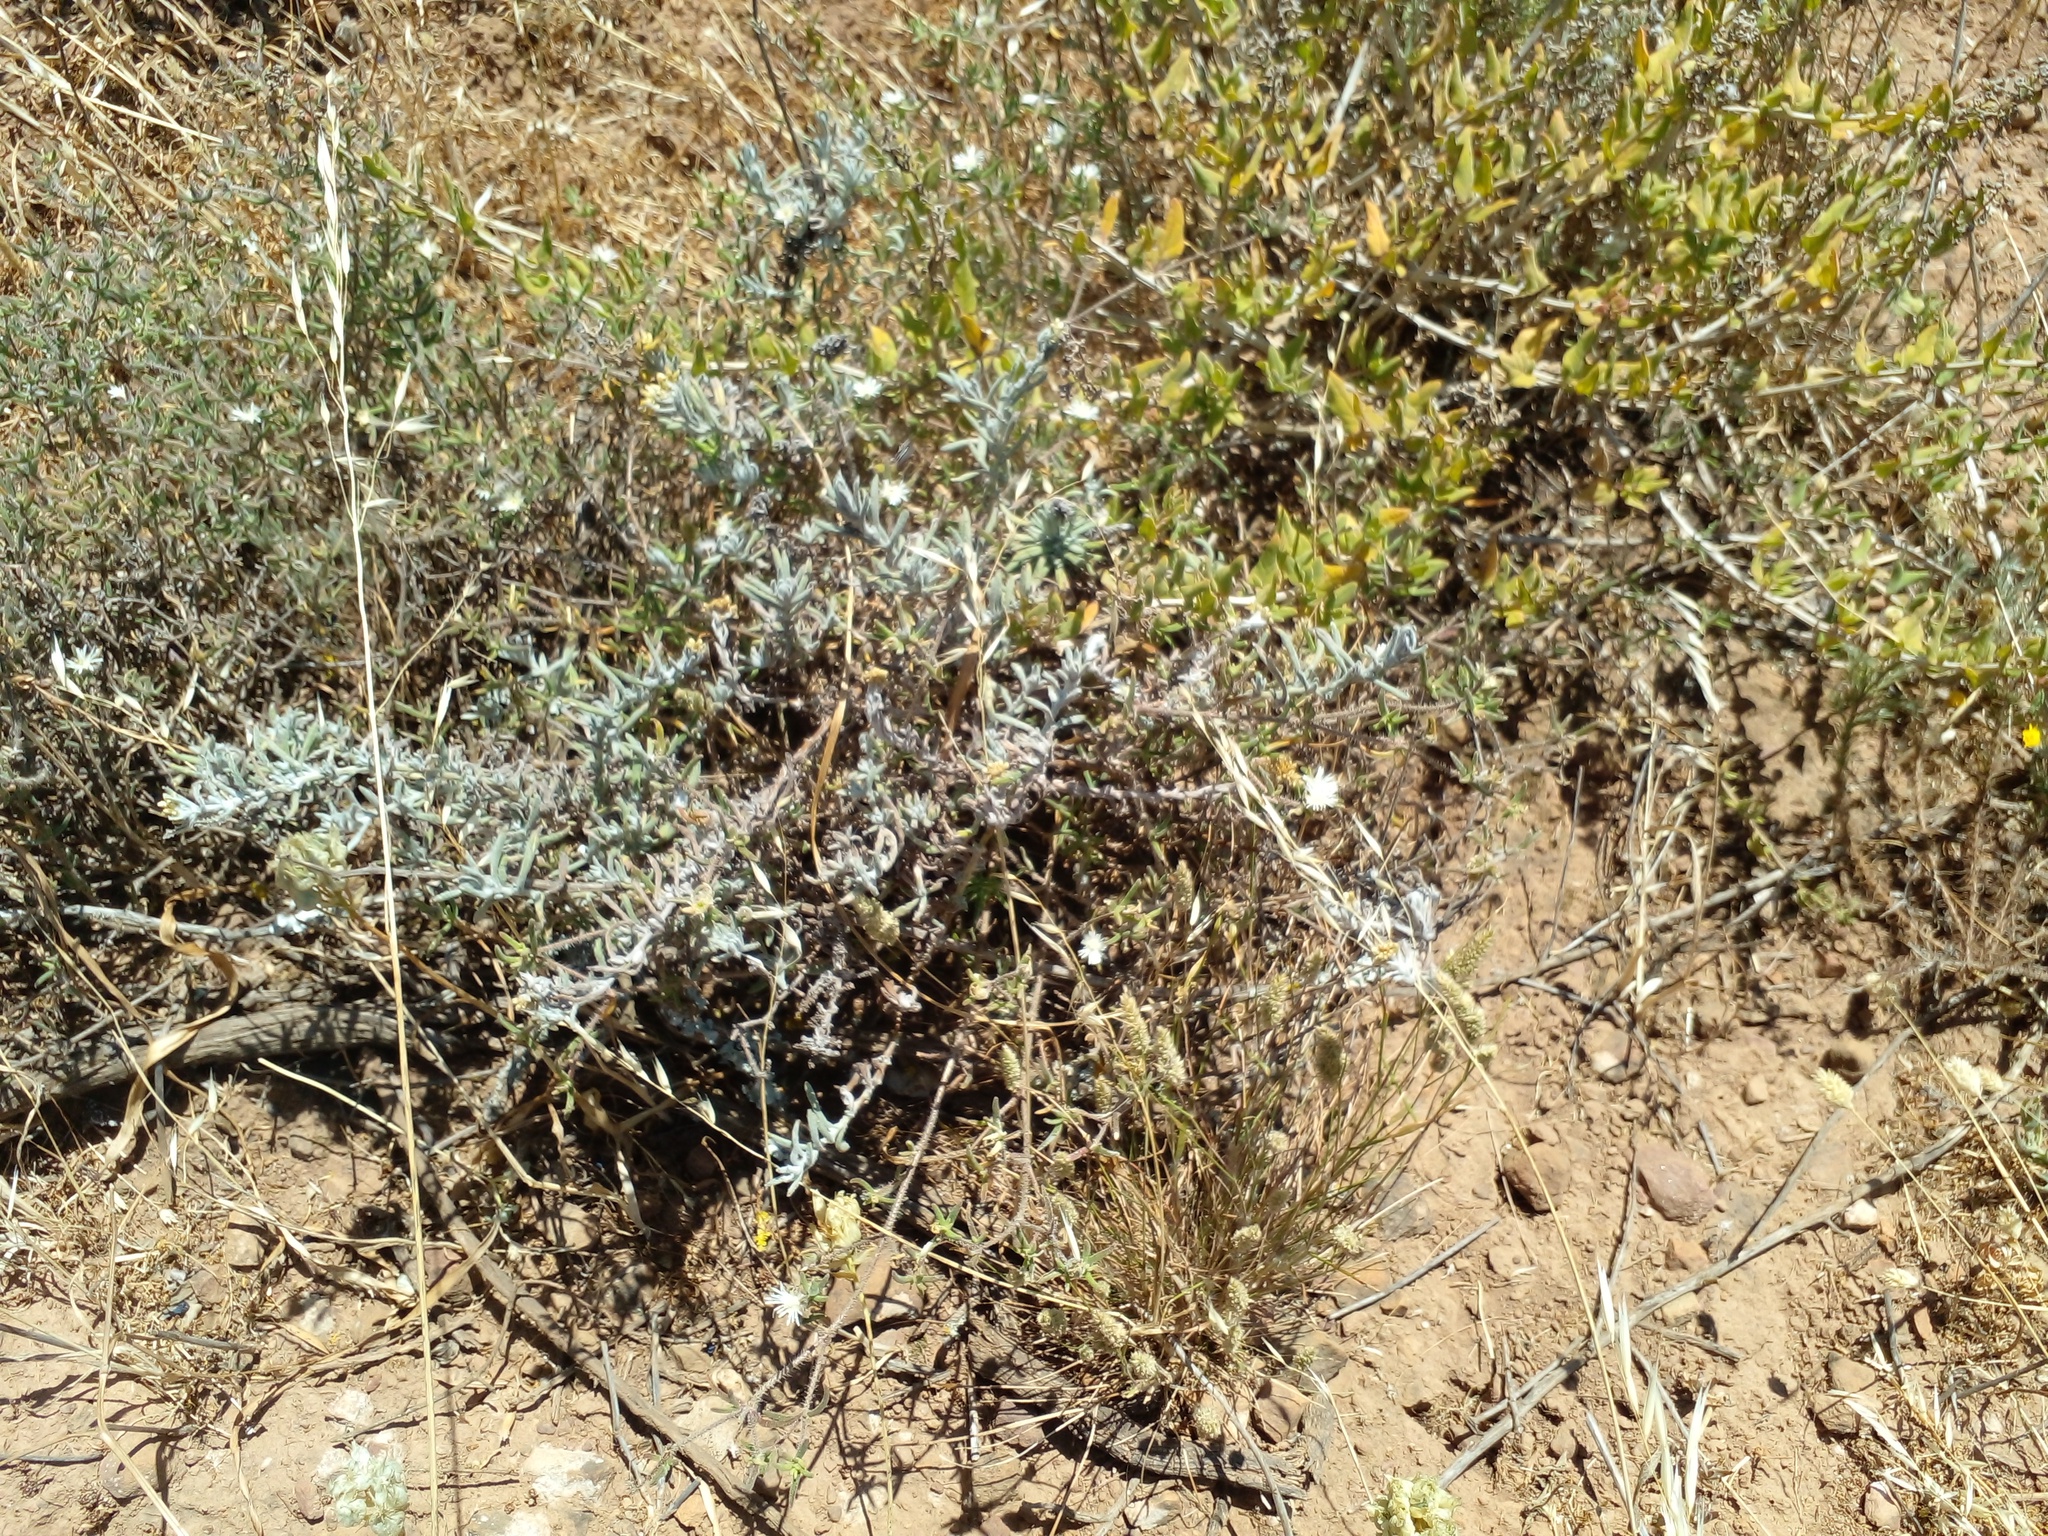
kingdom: Plantae
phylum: Tracheophyta
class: Magnoliopsida
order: Caryophyllales
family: Aizoaceae
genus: Drosanthemum
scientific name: Drosanthemum calycinum
